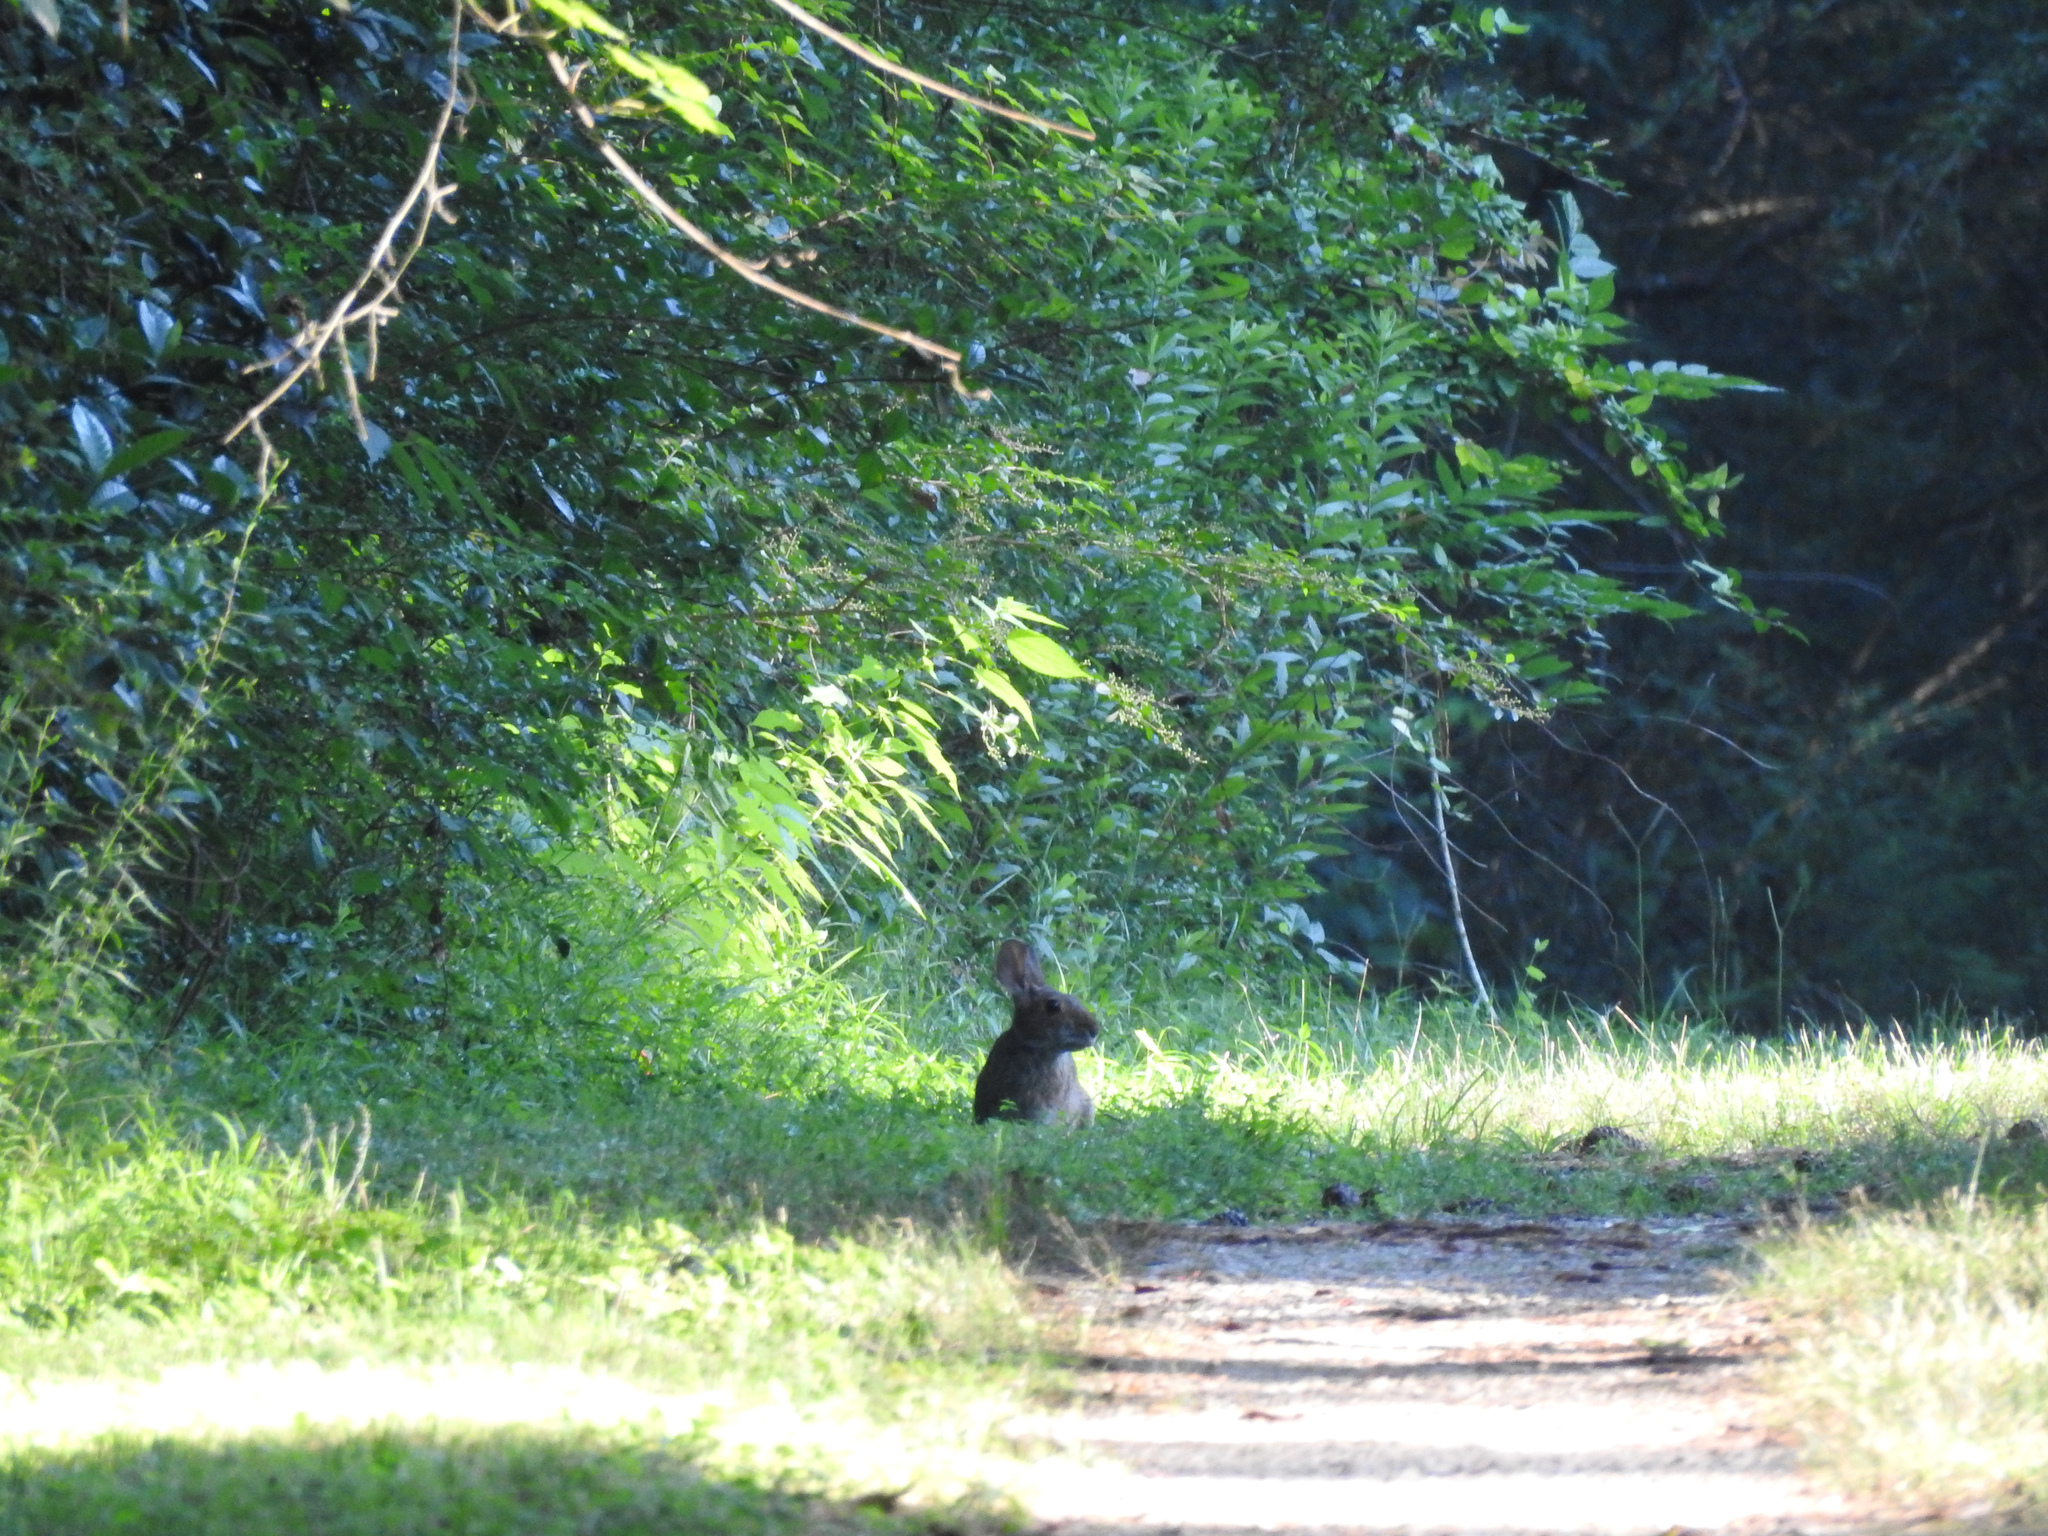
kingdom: Animalia
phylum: Chordata
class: Mammalia
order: Lagomorpha
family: Leporidae
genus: Sylvilagus
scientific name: Sylvilagus aquaticus
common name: Swamp rabbit
